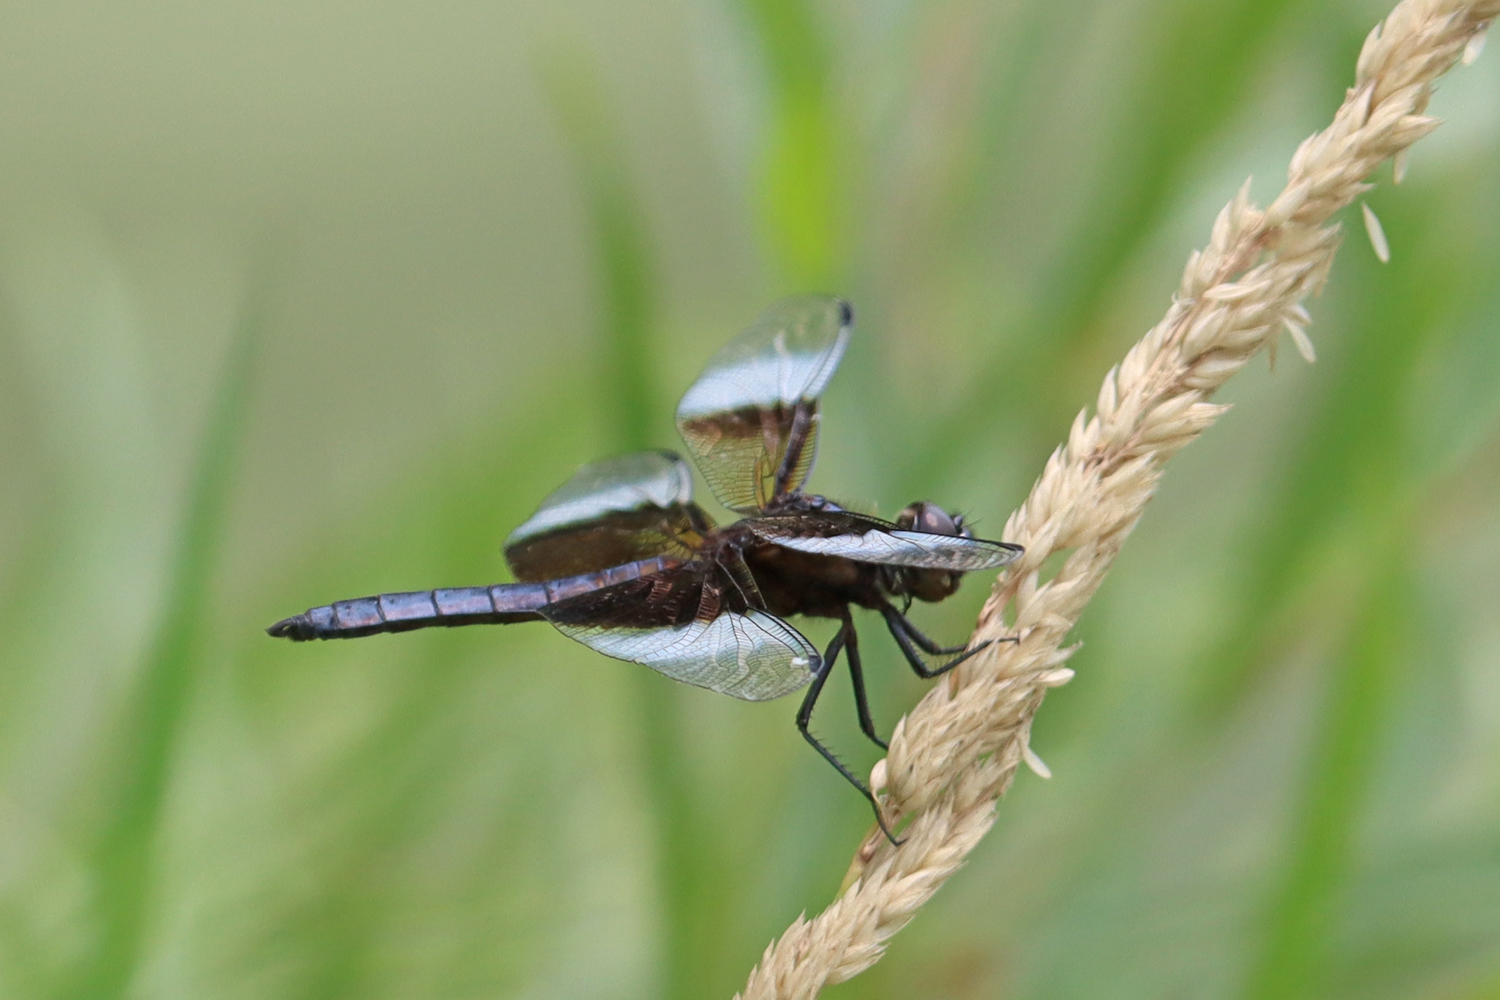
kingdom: Animalia
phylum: Arthropoda
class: Insecta
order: Odonata
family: Libellulidae
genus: Libellula
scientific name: Libellula luctuosa
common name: Widow skimmer
